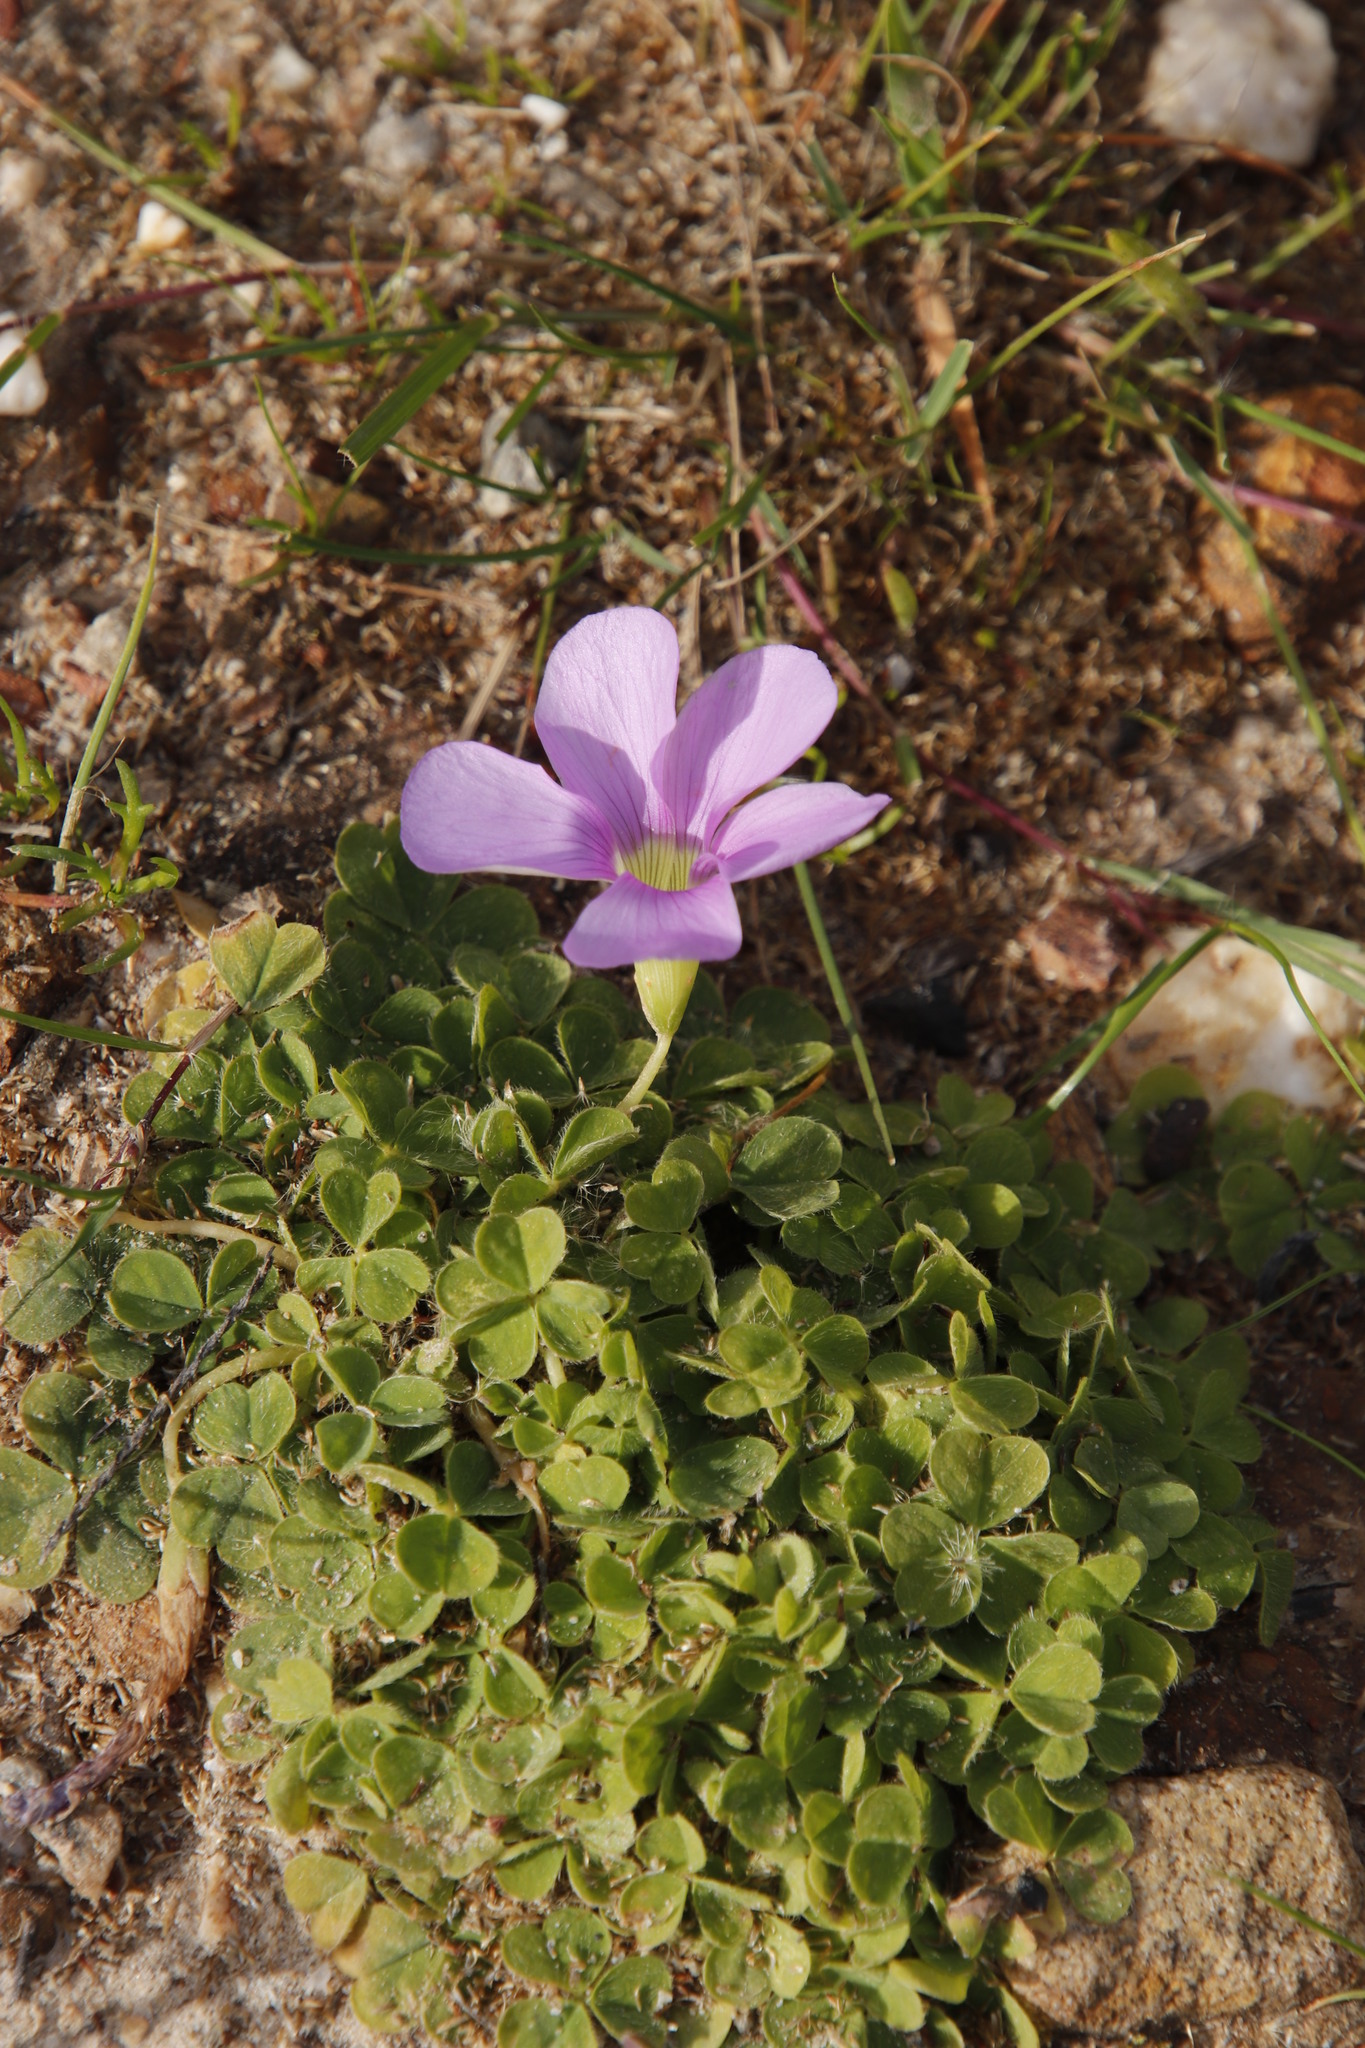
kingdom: Plantae
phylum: Tracheophyta
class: Magnoliopsida
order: Oxalidales
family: Oxalidaceae
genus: Oxalis
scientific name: Oxalis zeekoevleyensis
